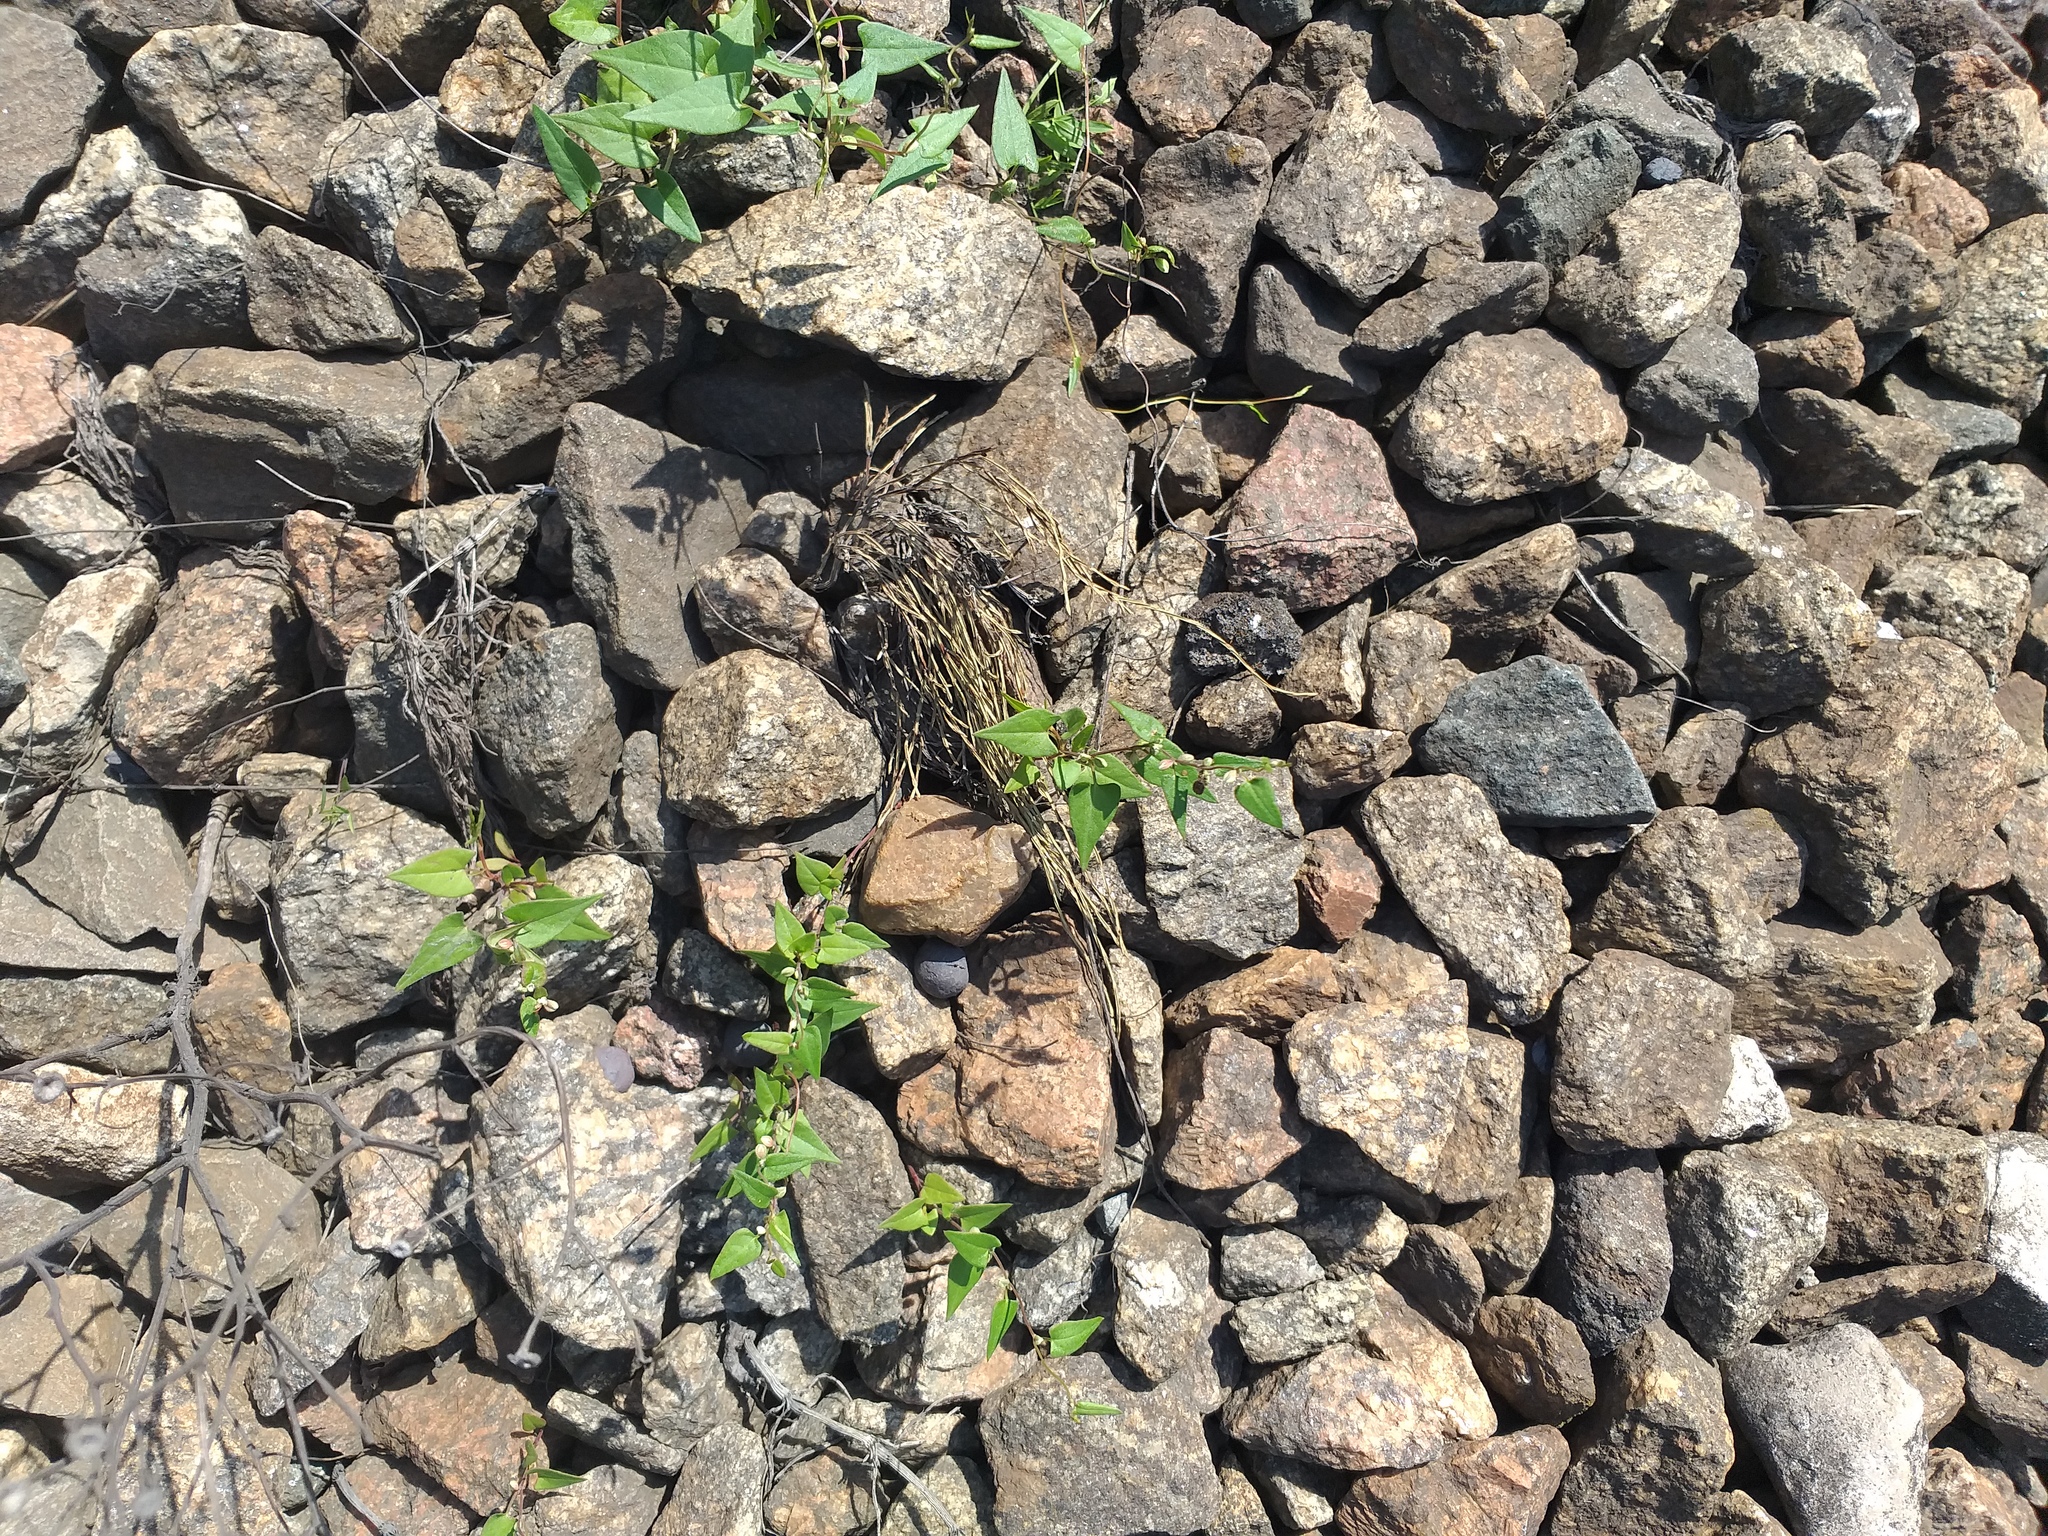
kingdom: Plantae
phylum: Tracheophyta
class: Magnoliopsida
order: Caryophyllales
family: Polygonaceae
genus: Fallopia
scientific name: Fallopia convolvulus
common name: Black bindweed
